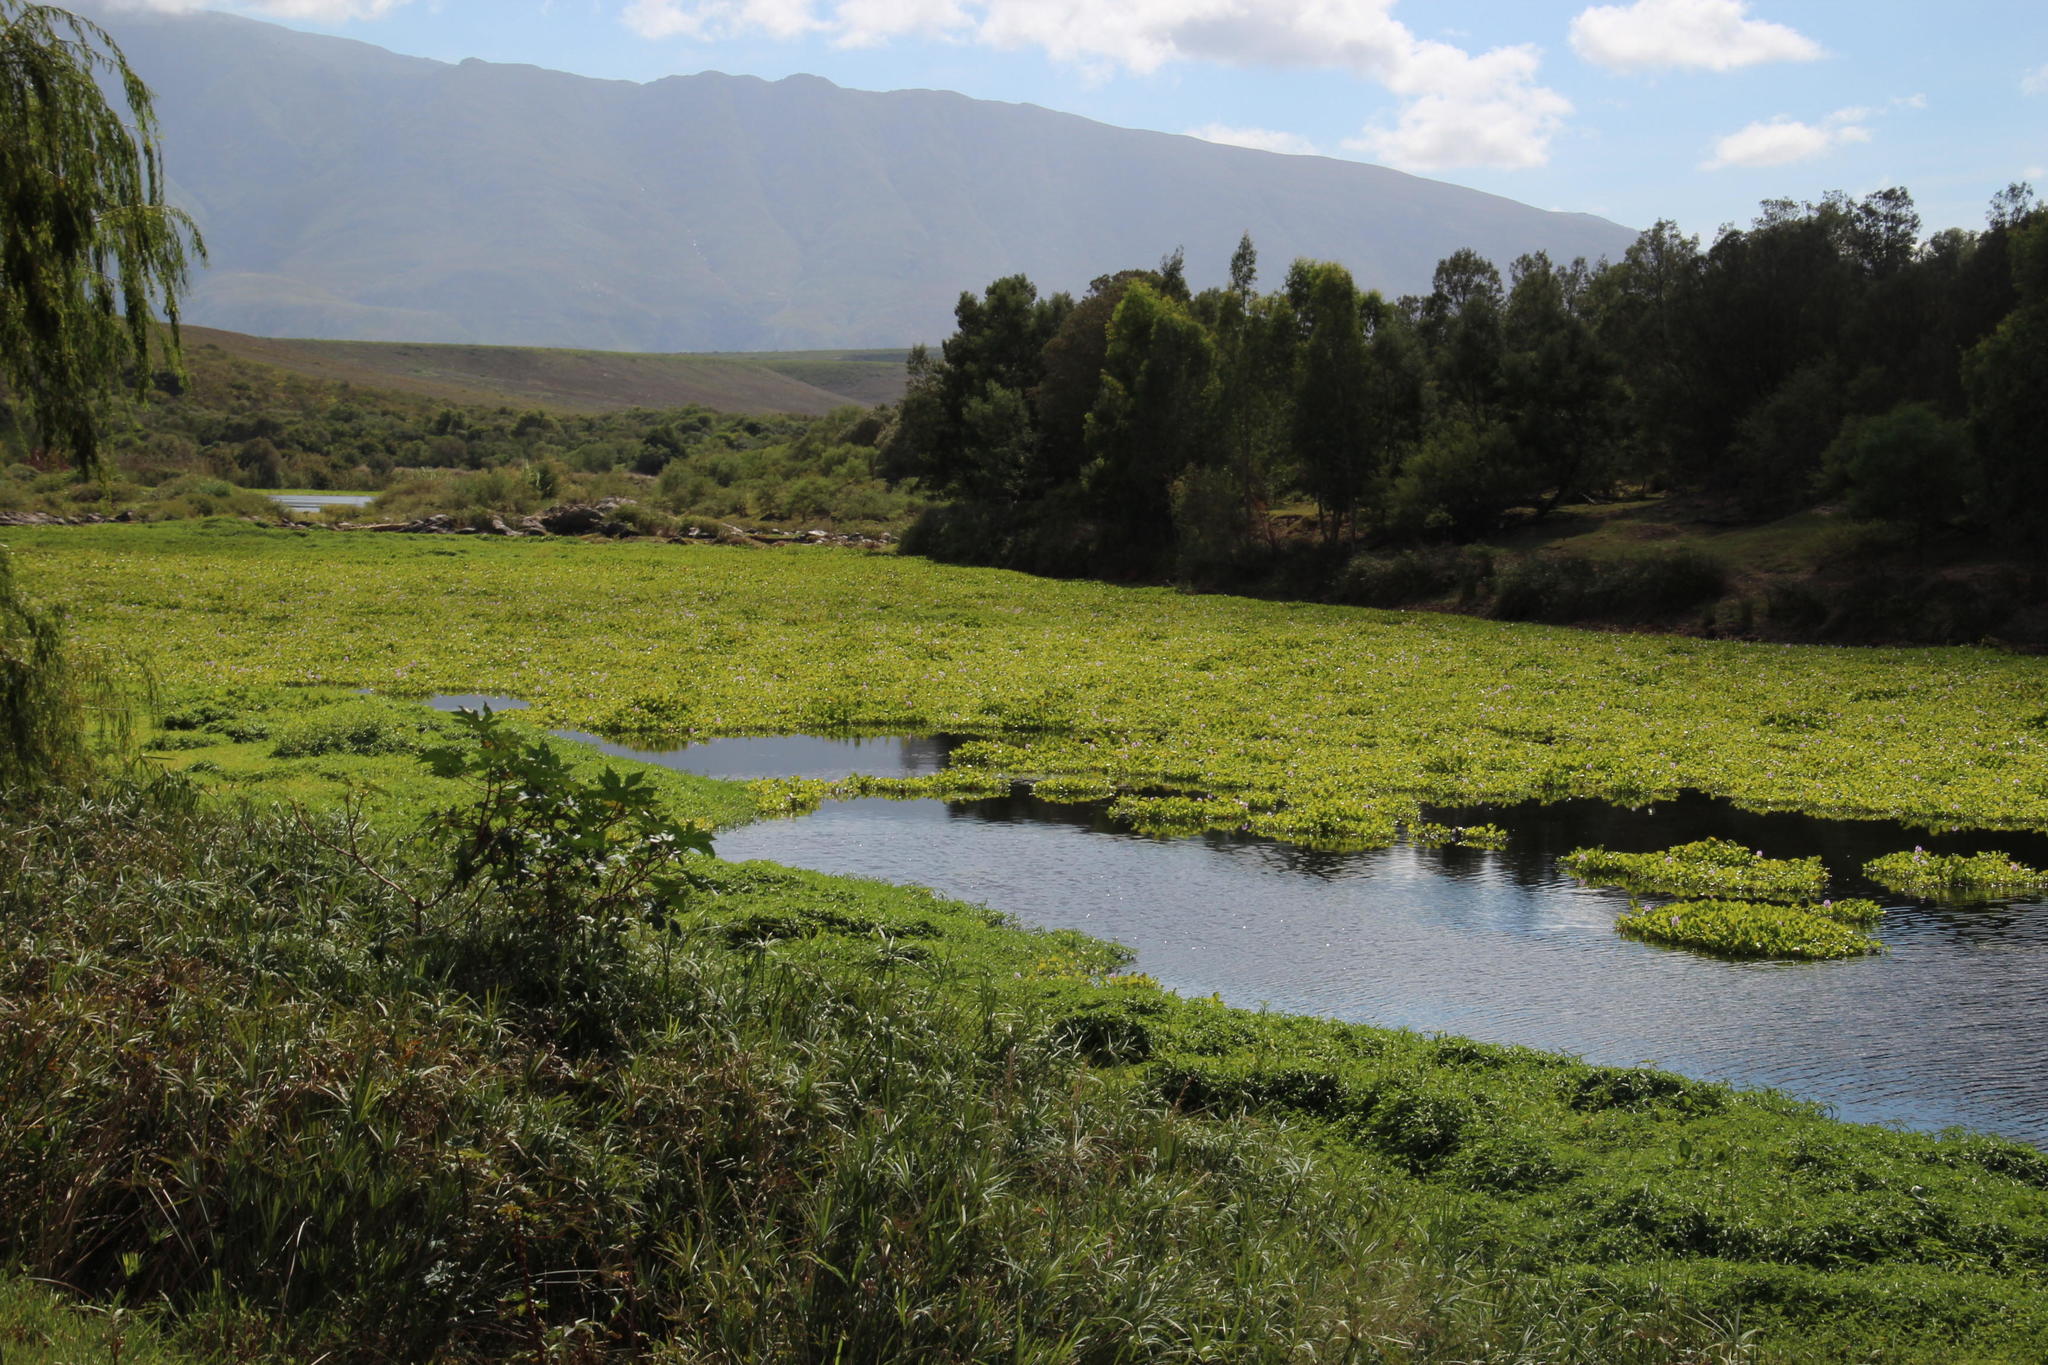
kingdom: Plantae
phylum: Tracheophyta
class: Liliopsida
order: Commelinales
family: Pontederiaceae
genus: Pontederia
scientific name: Pontederia crassipes
